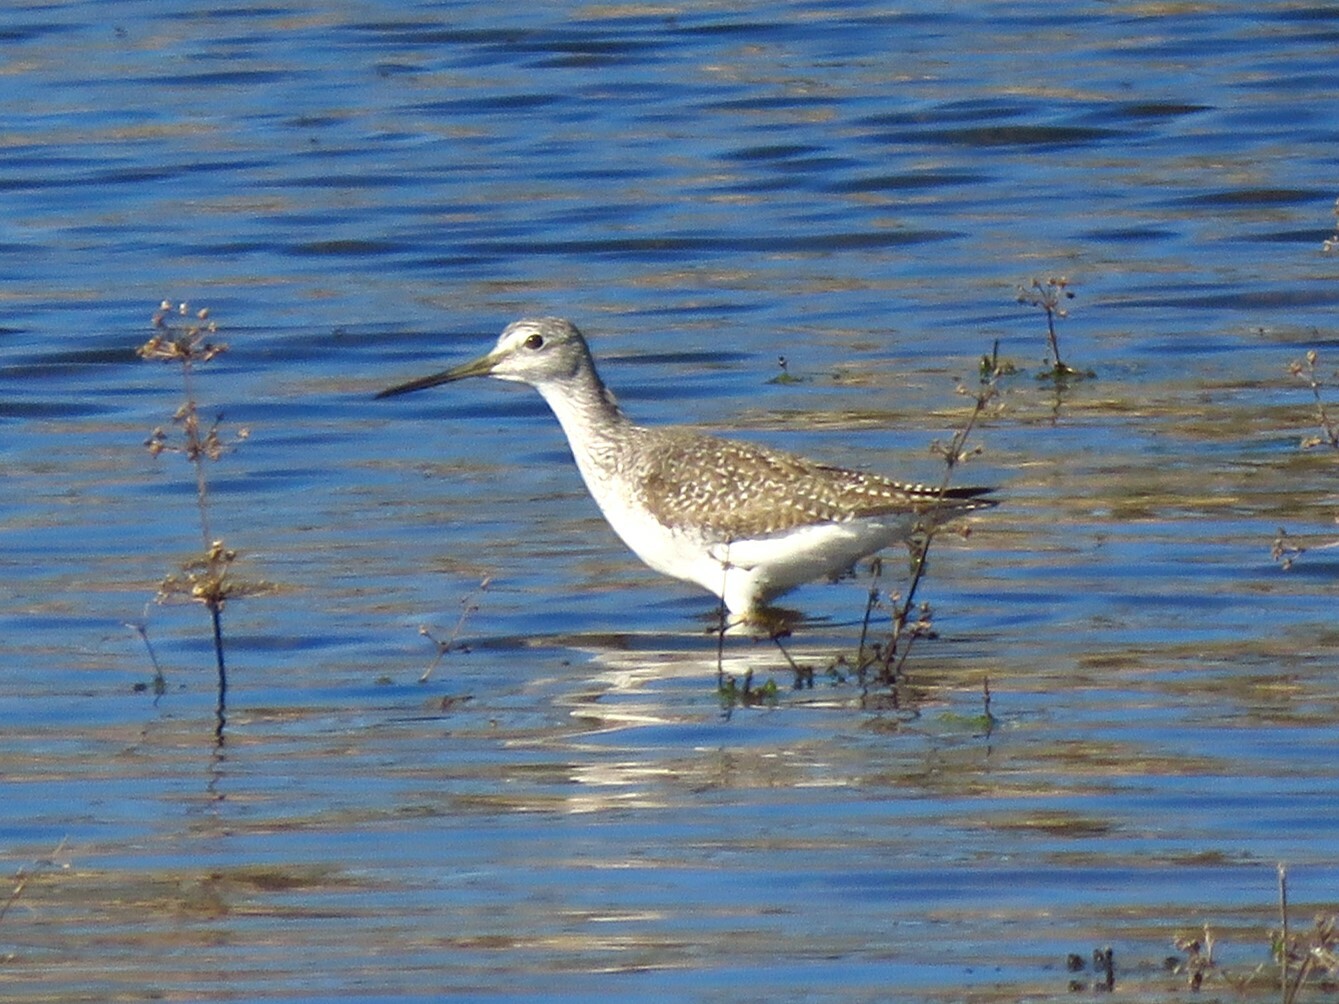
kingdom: Animalia
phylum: Chordata
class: Aves
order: Charadriiformes
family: Scolopacidae
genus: Tringa
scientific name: Tringa melanoleuca
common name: Greater yellowlegs
